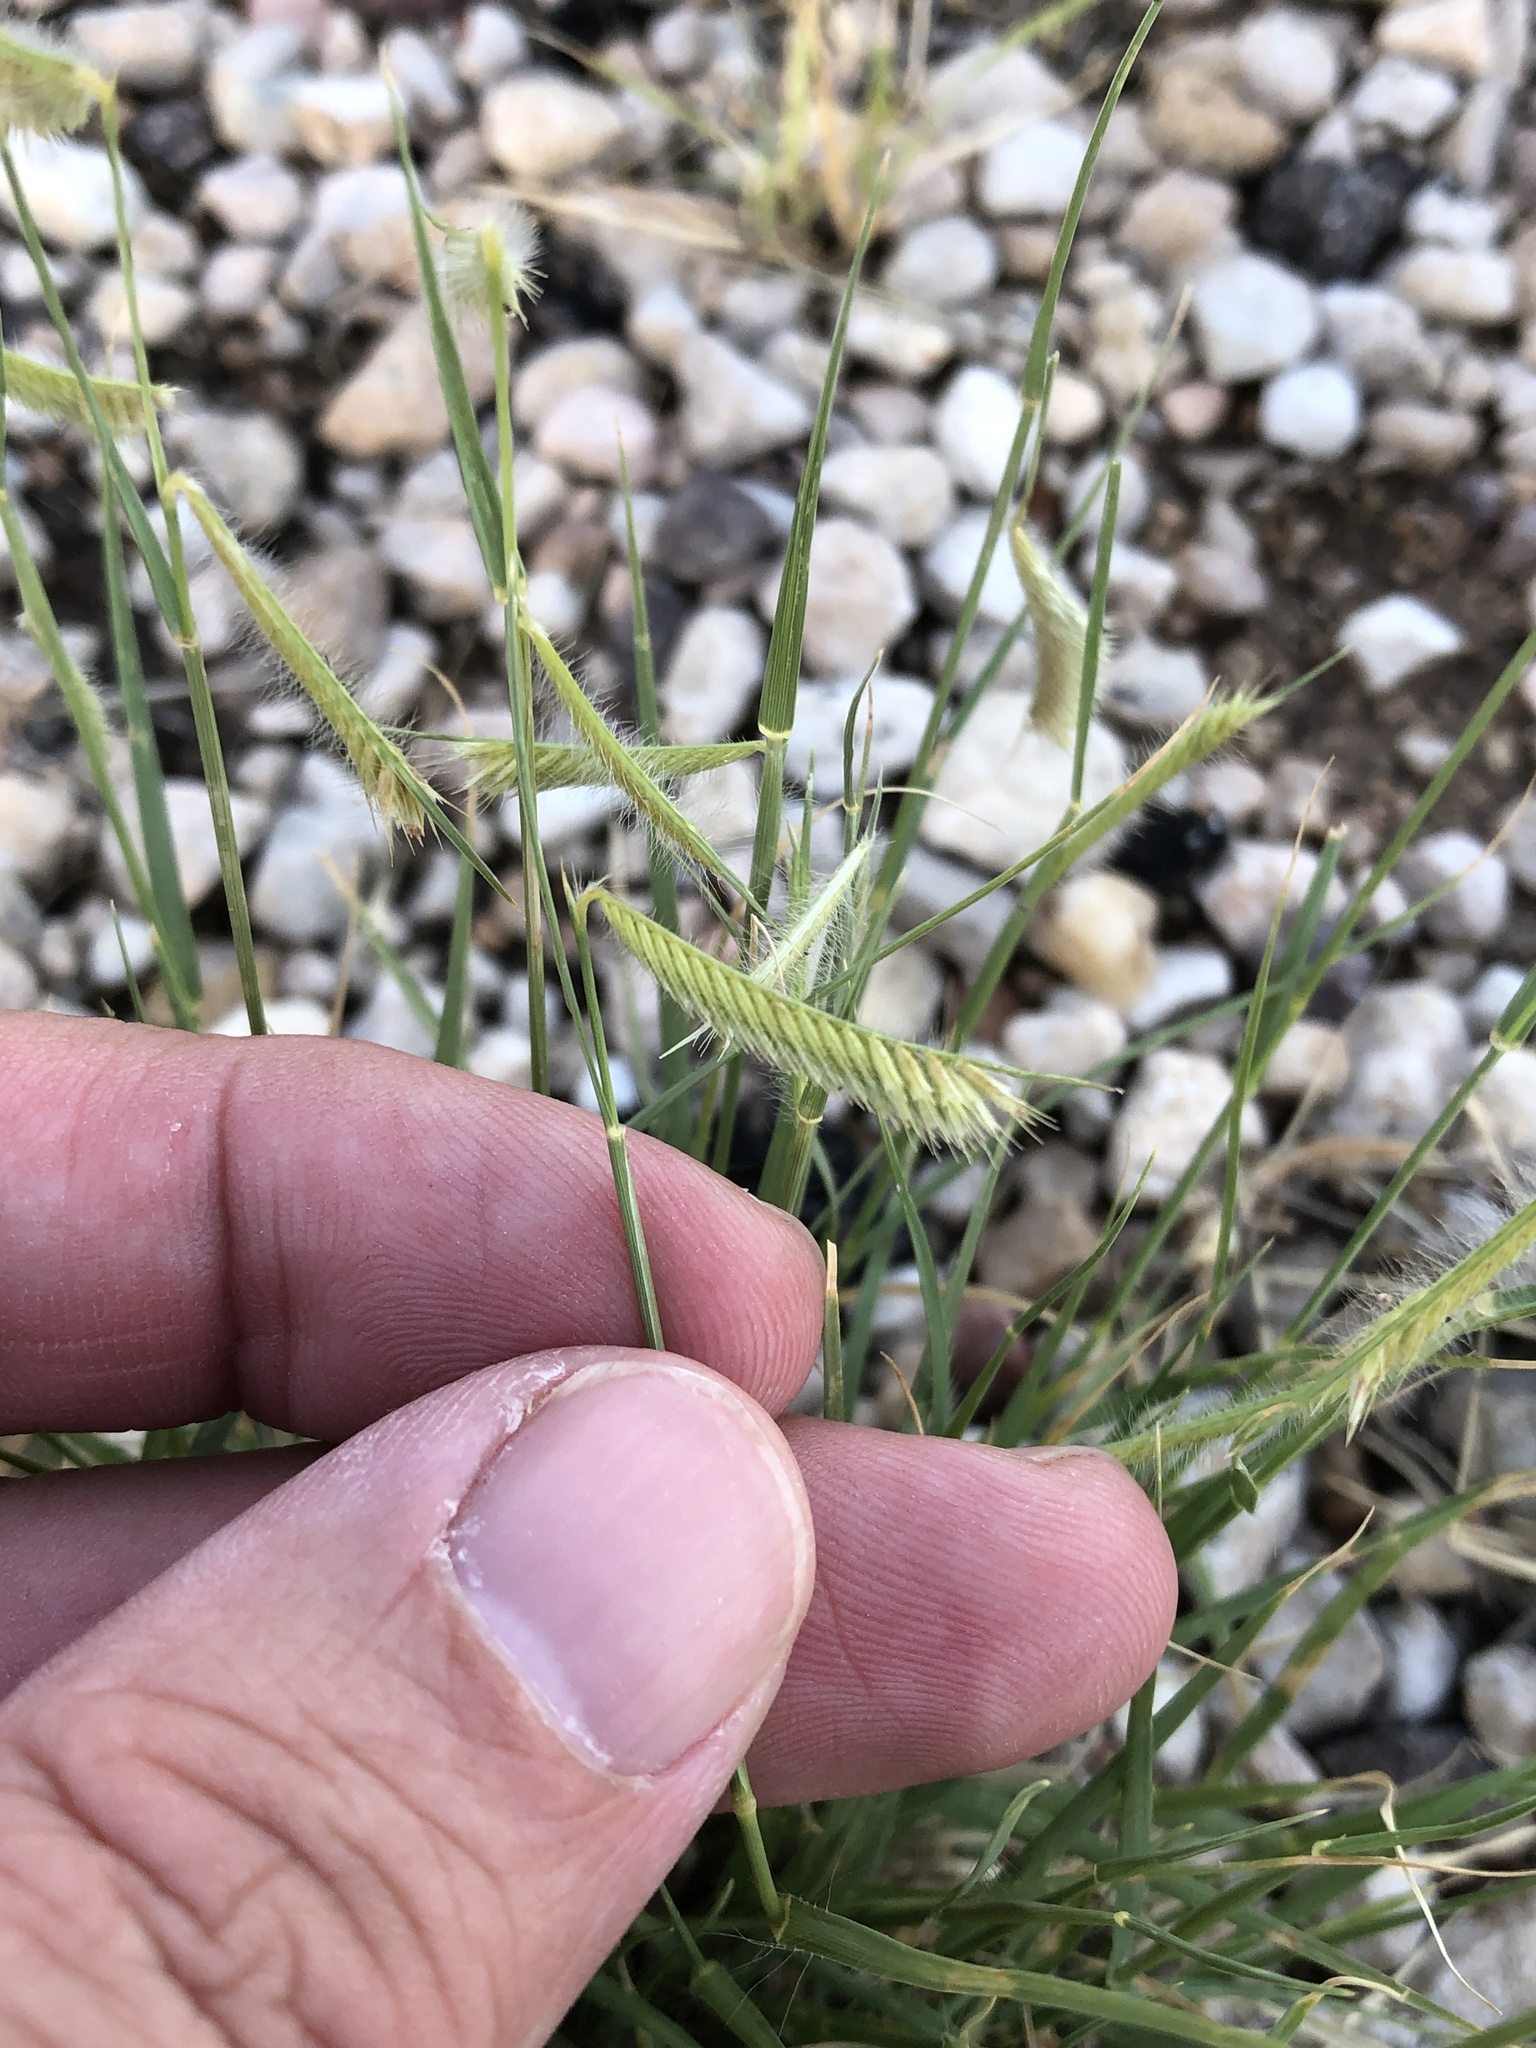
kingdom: Plantae
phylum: Tracheophyta
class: Liliopsida
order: Poales
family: Poaceae
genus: Bouteloua
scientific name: Bouteloua hirsuta
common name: Hairy grama
